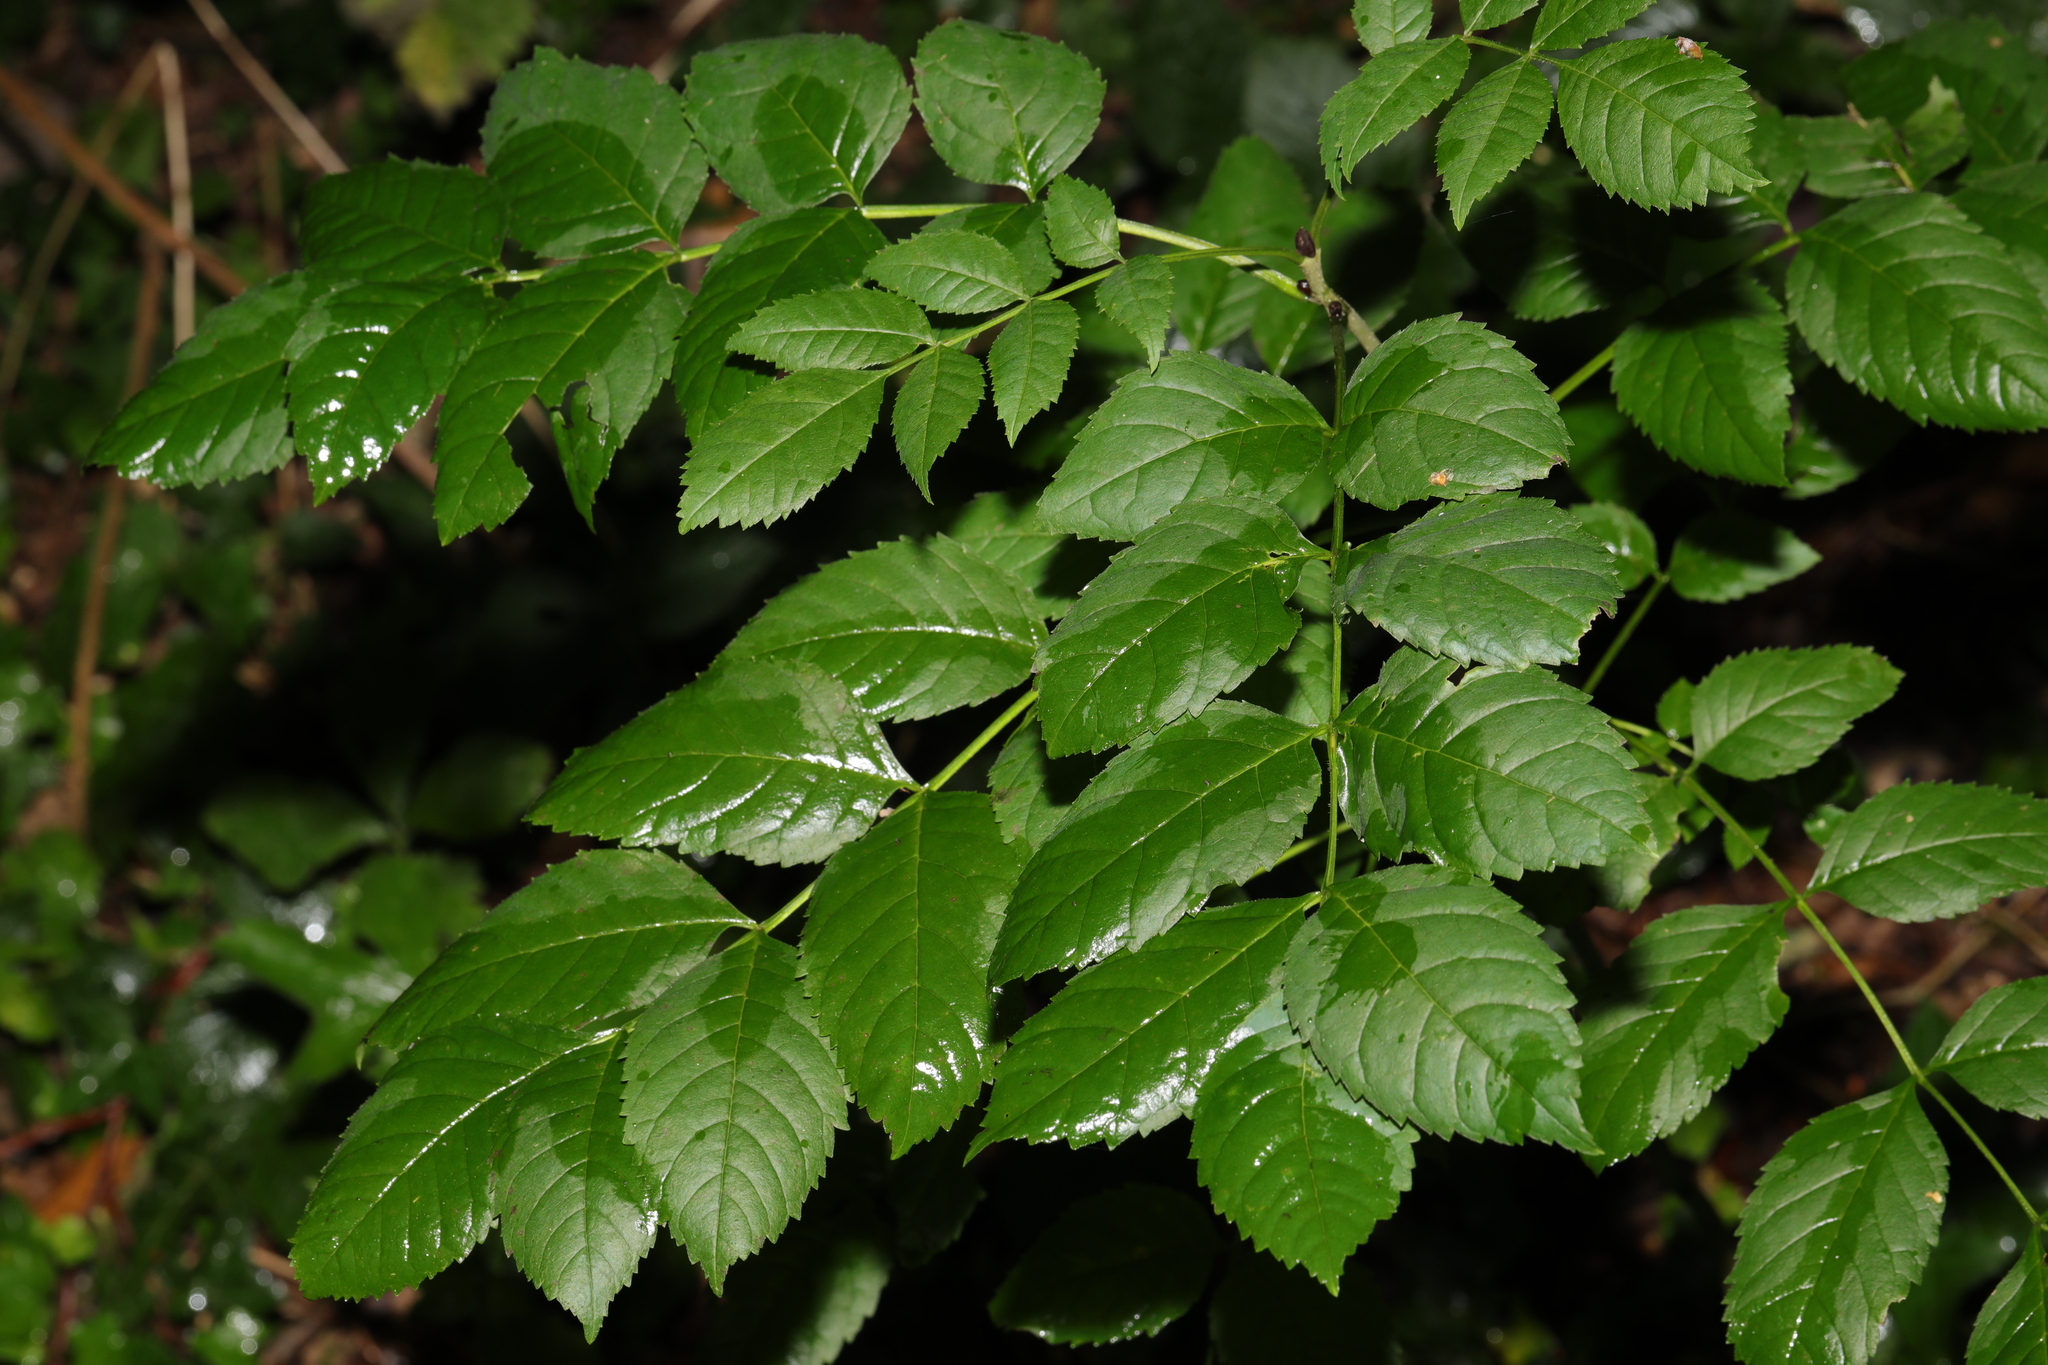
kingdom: Plantae
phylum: Tracheophyta
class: Magnoliopsida
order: Lamiales
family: Oleaceae
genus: Fraxinus
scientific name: Fraxinus excelsior
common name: European ash
